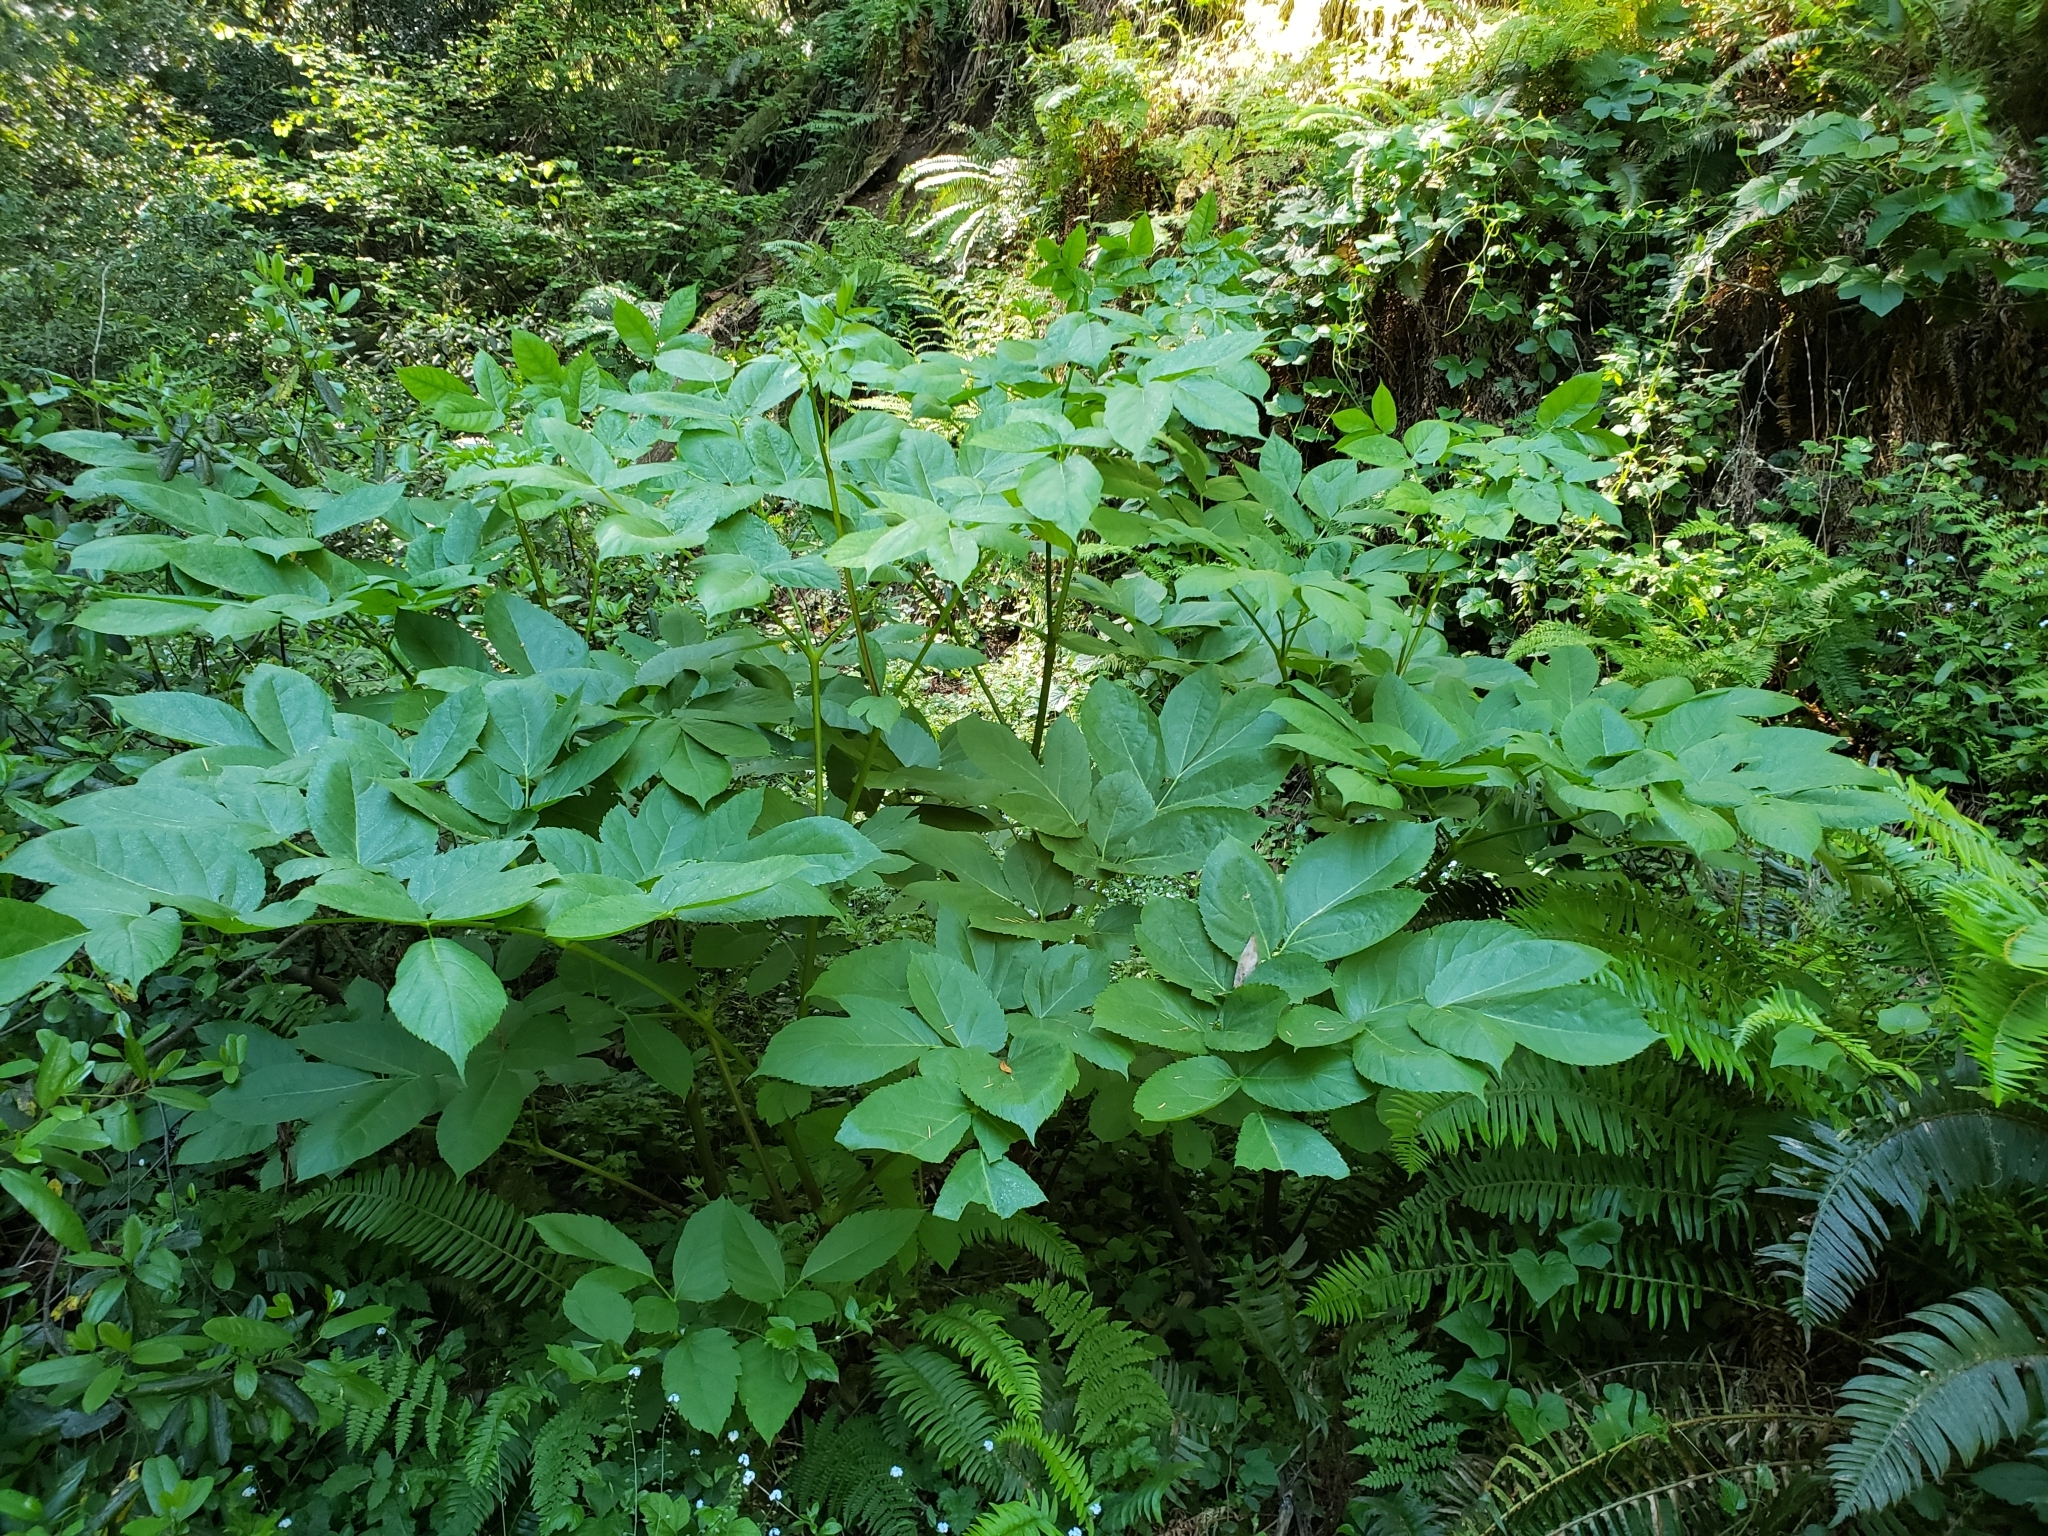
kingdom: Plantae
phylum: Tracheophyta
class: Magnoliopsida
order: Apiales
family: Araliaceae
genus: Aralia
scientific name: Aralia californica
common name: California-ginseng
